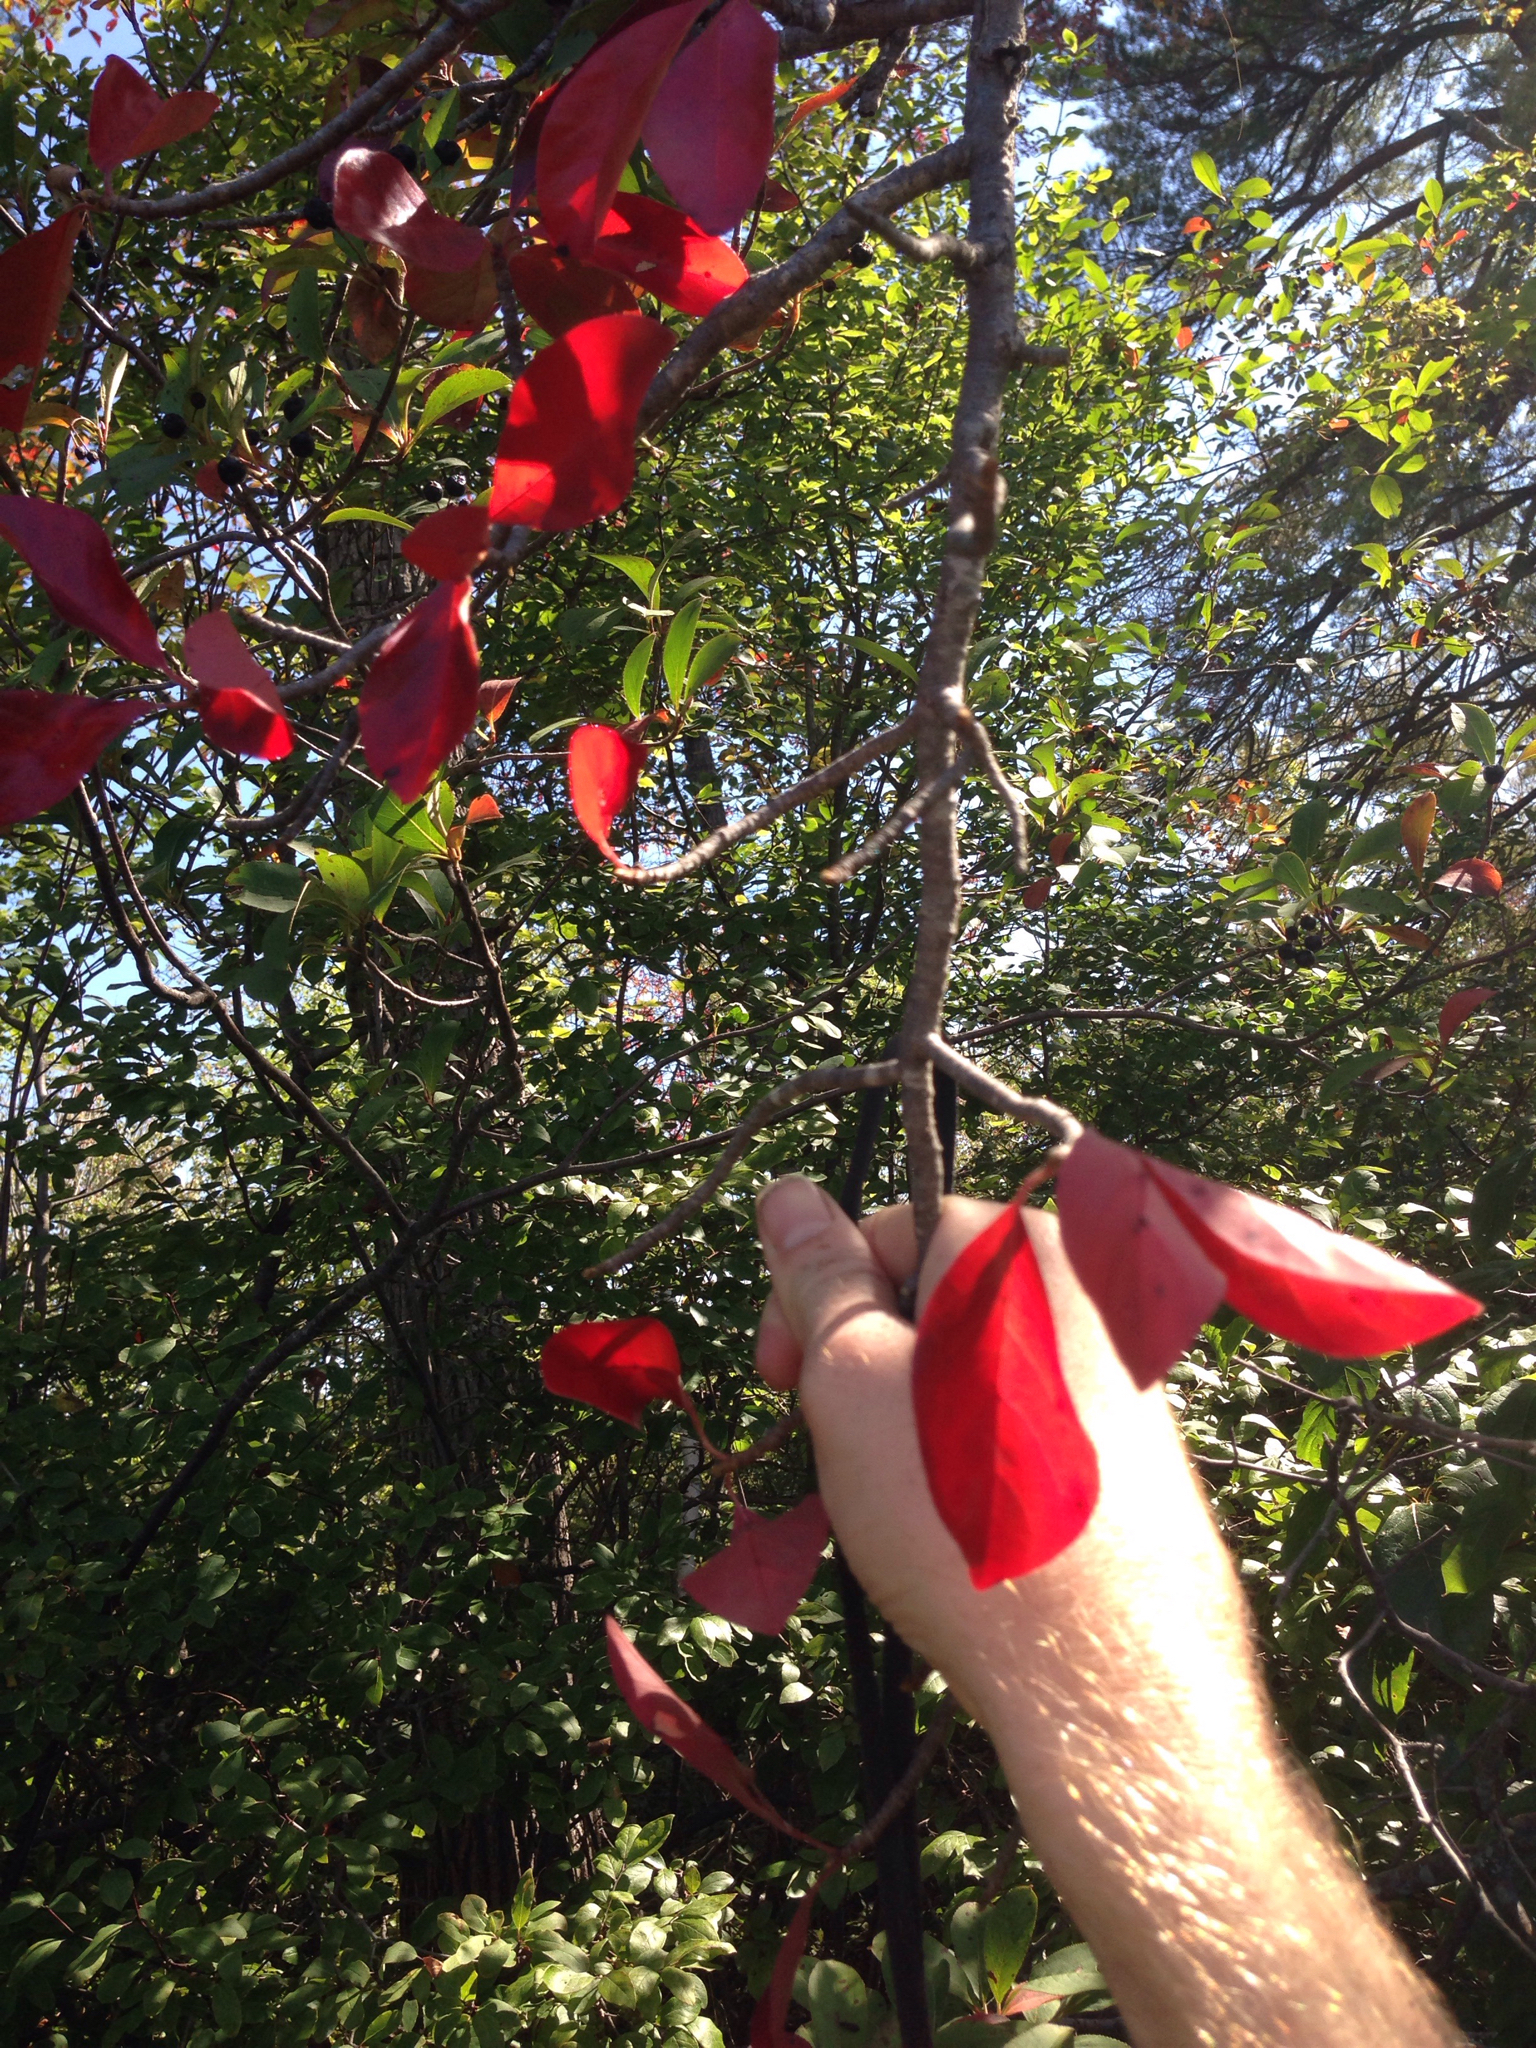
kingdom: Plantae
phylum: Tracheophyta
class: Magnoliopsida
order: Cornales
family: Nyssaceae
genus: Nyssa
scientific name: Nyssa sylvatica
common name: Black tupelo
